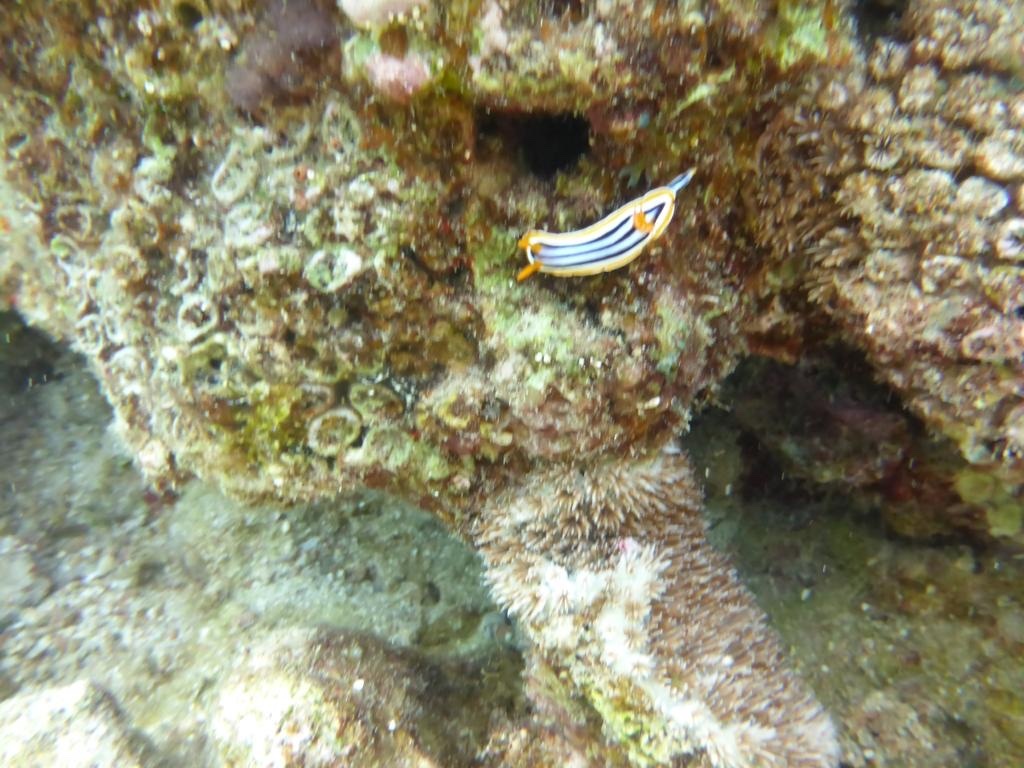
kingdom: Animalia
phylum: Mollusca
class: Gastropoda
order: Nudibranchia
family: Chromodorididae
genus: Chromodoris
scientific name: Chromodoris quadricolor
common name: Striped pyjama nudibranch
